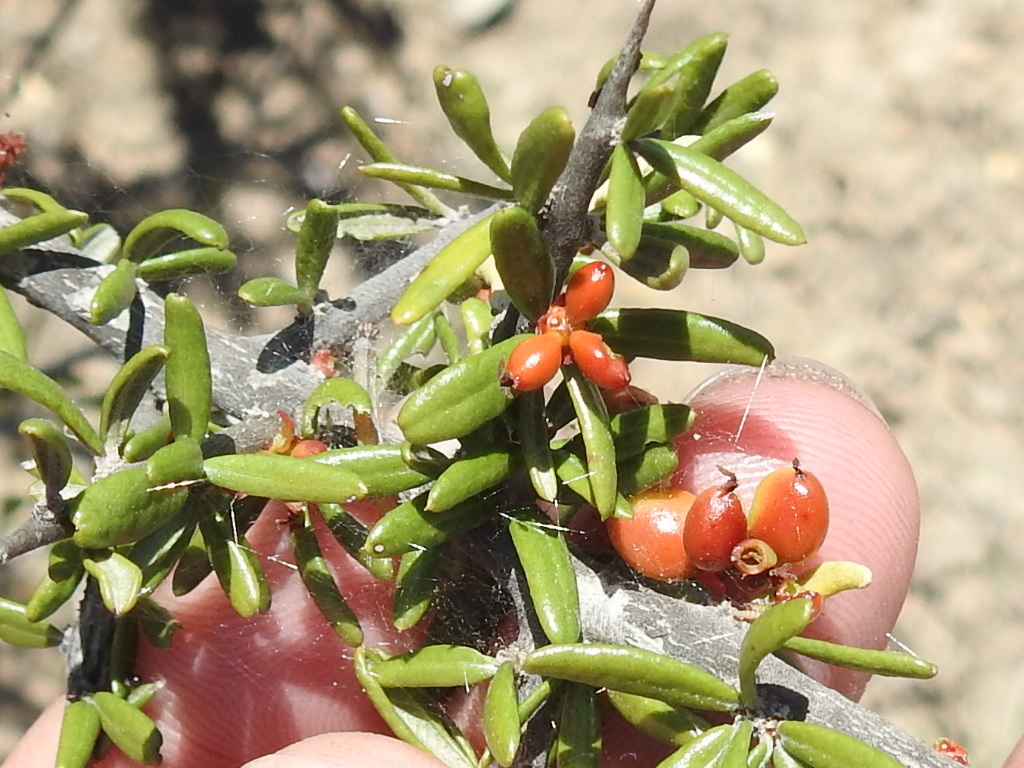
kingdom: Plantae
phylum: Tracheophyta
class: Magnoliopsida
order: Sapindales
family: Simaroubaceae
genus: Castela
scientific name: Castela erecta
